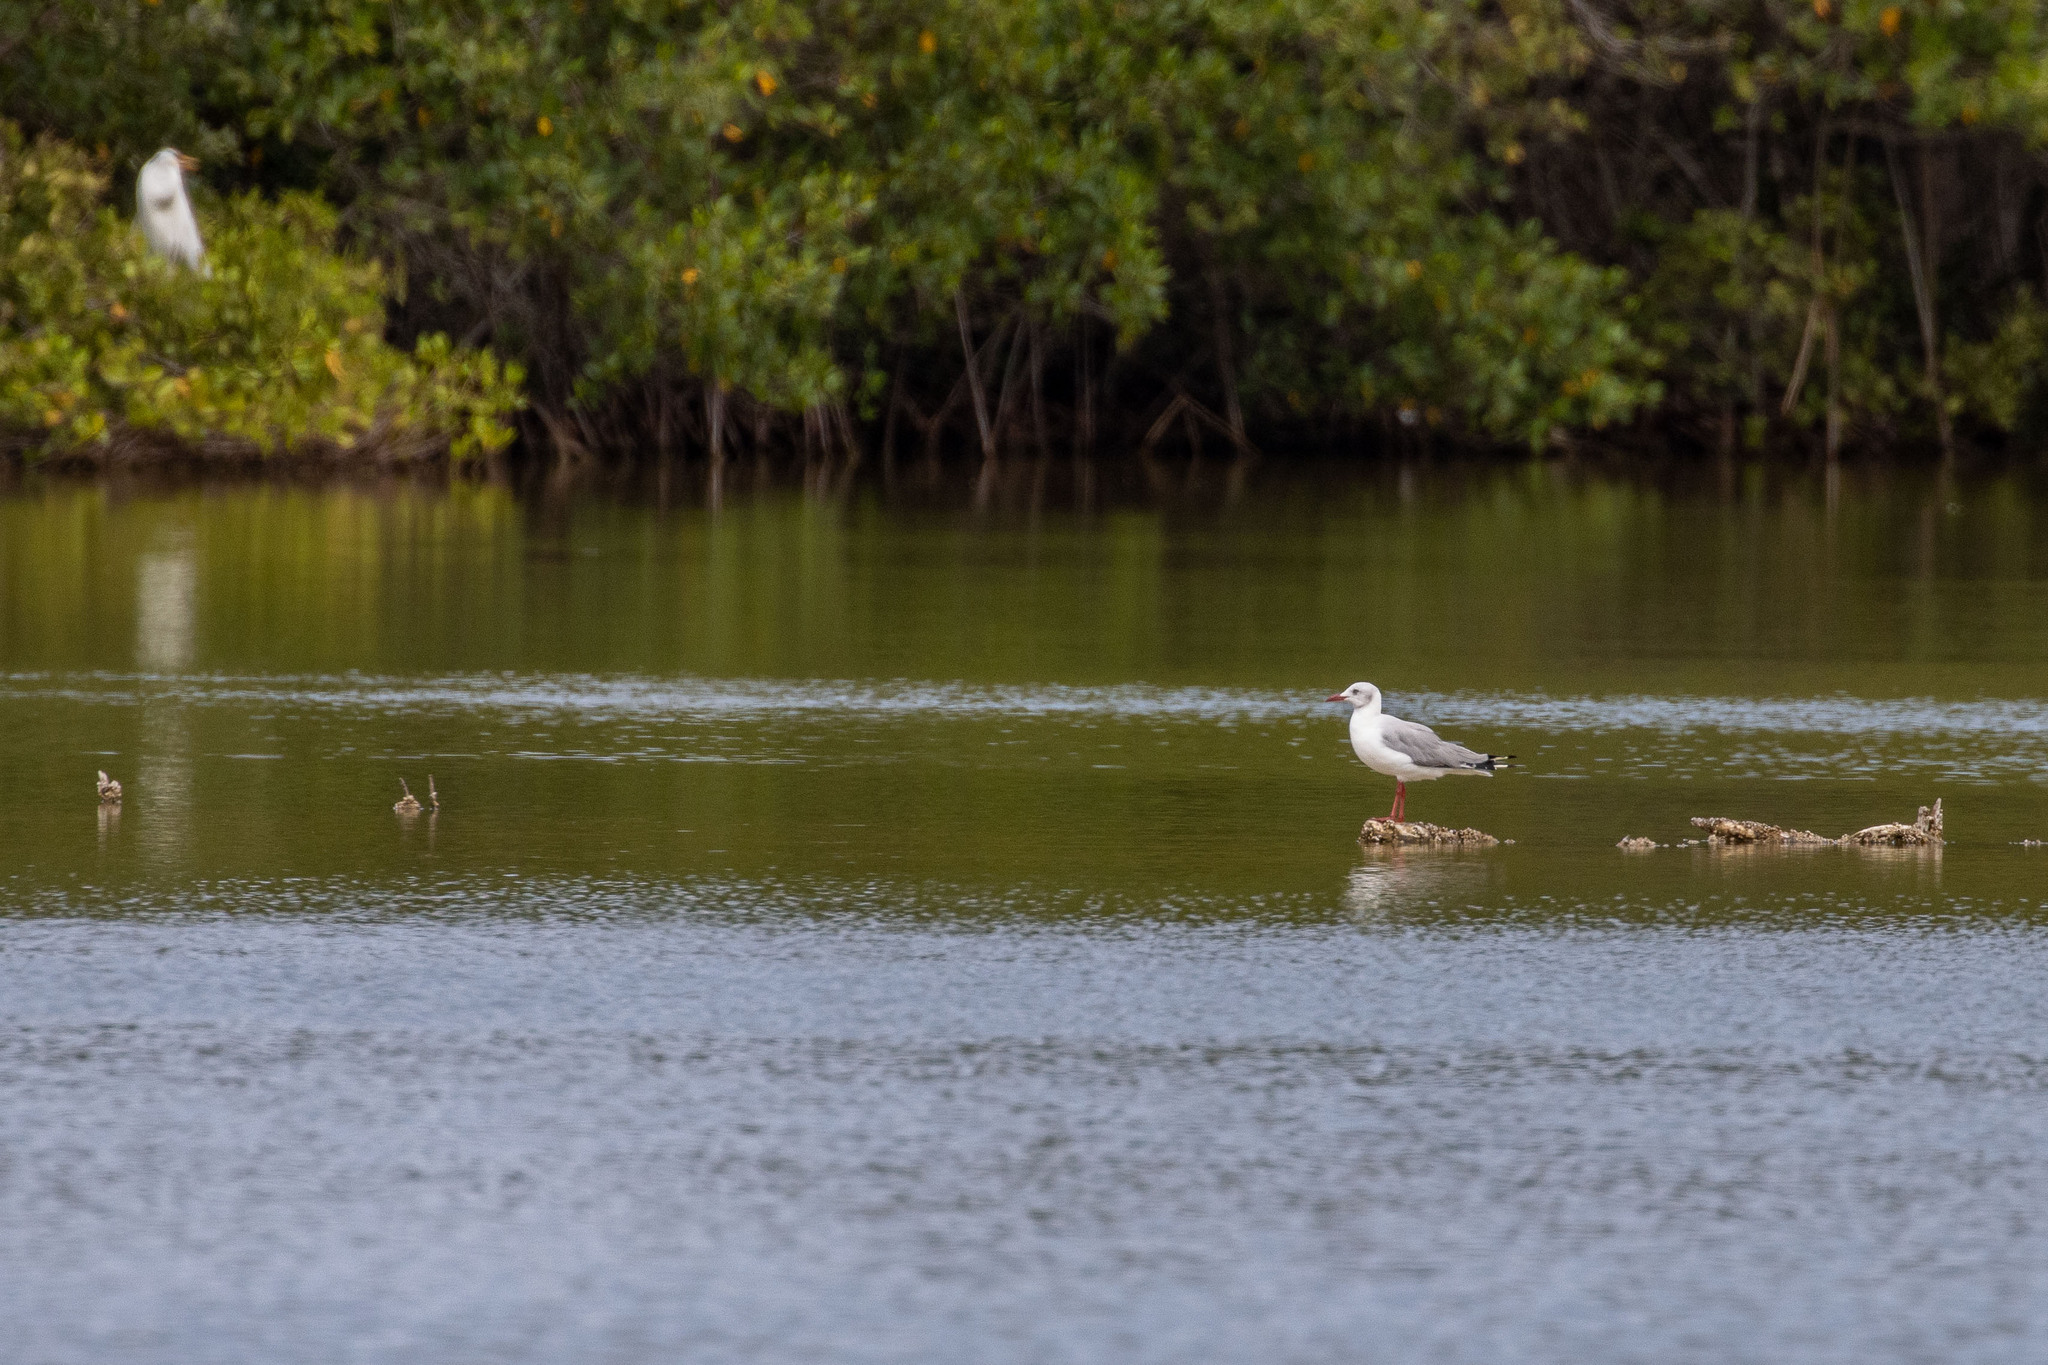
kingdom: Animalia
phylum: Chordata
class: Aves
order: Charadriiformes
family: Laridae
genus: Chroicocephalus
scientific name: Chroicocephalus cirrocephalus
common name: Grey-headed gull
